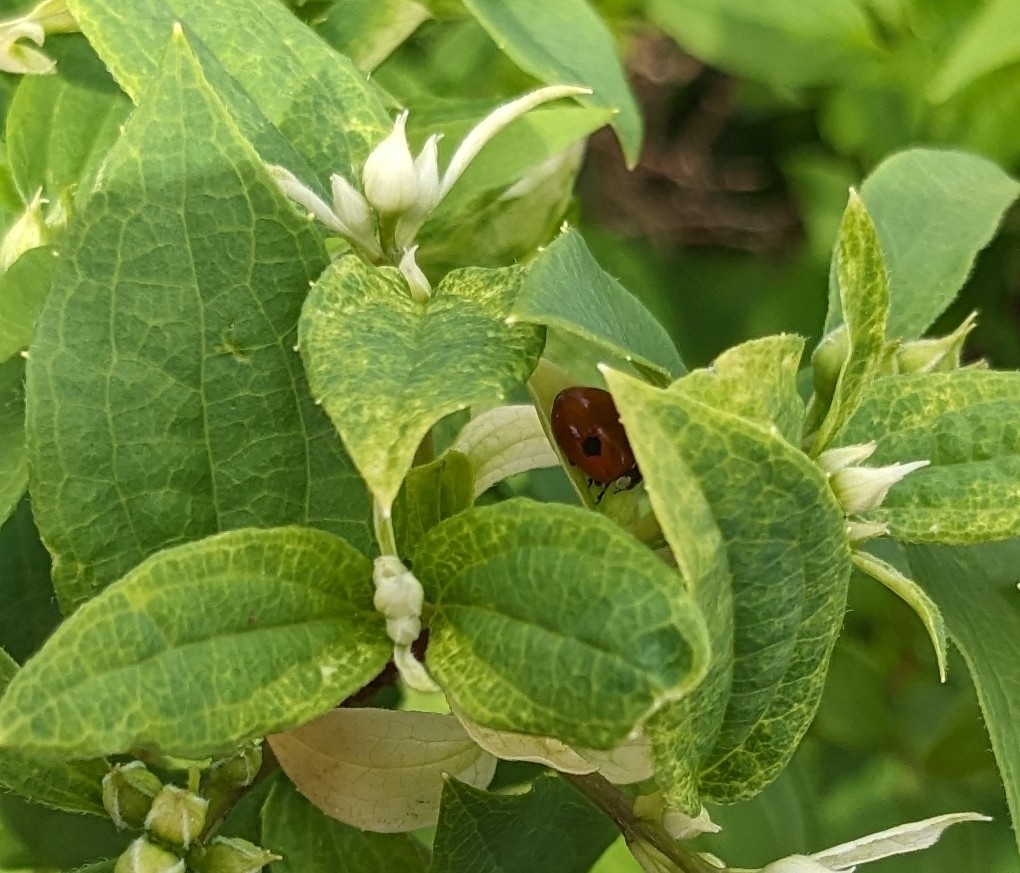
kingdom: Animalia
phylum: Arthropoda
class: Insecta
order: Coleoptera
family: Coccinellidae
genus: Adalia
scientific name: Adalia bipunctata
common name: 2-spot ladybird
